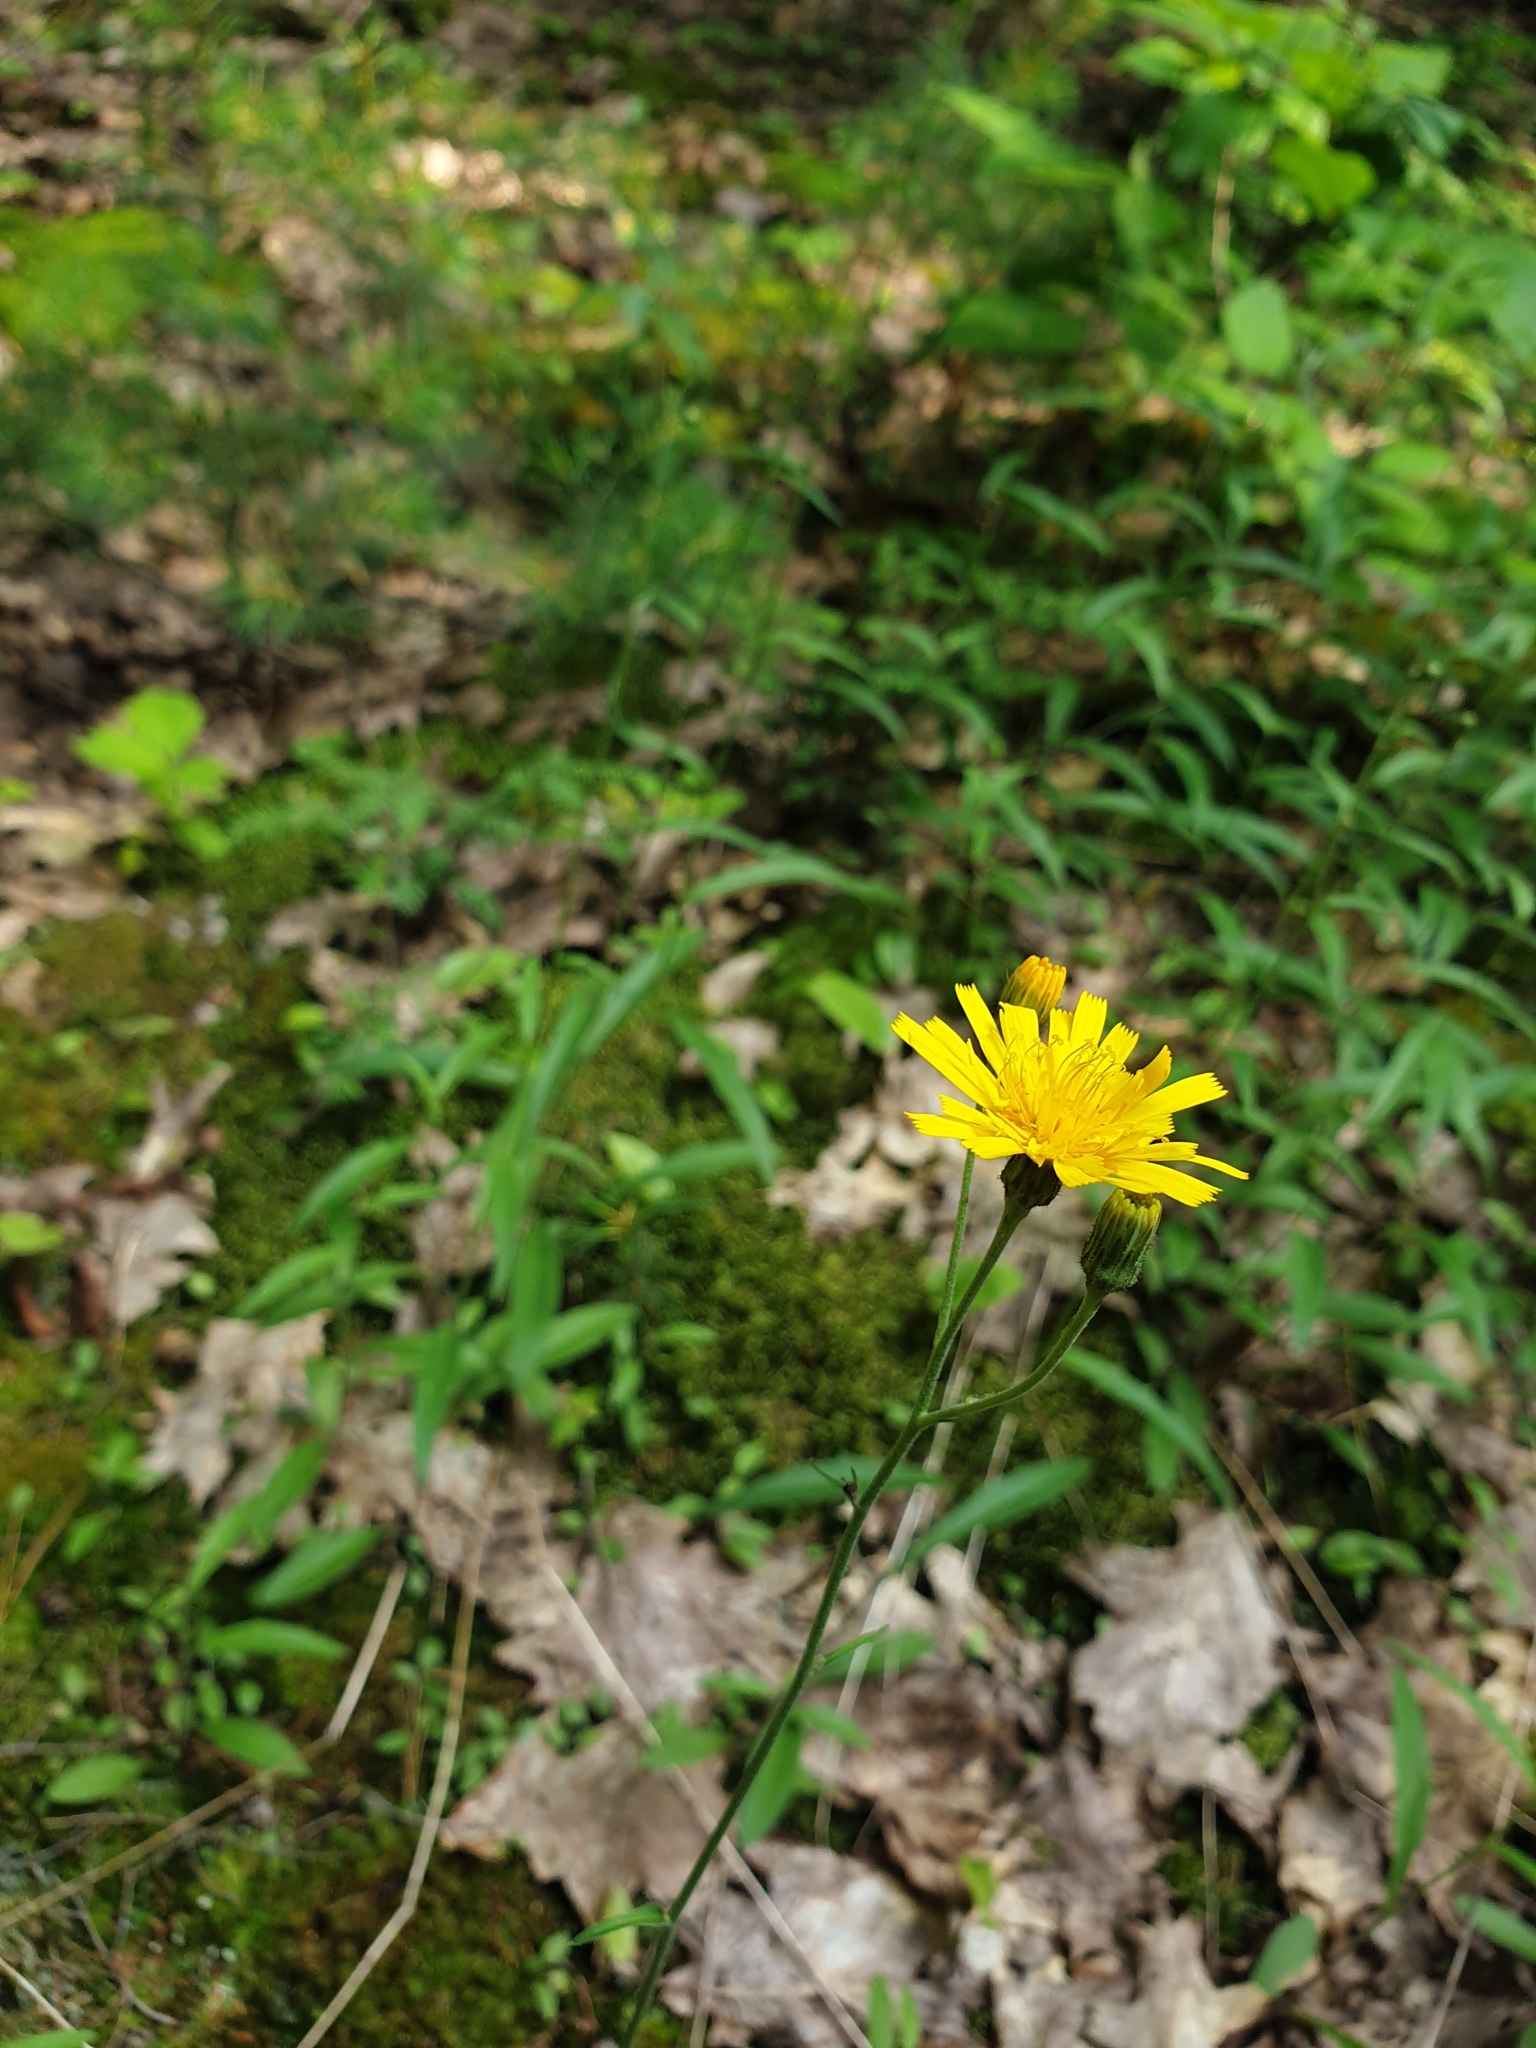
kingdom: Plantae
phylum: Tracheophyta
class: Magnoliopsida
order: Asterales
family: Asteraceae
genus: Hieracium
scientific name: Hieracium tridentatum
